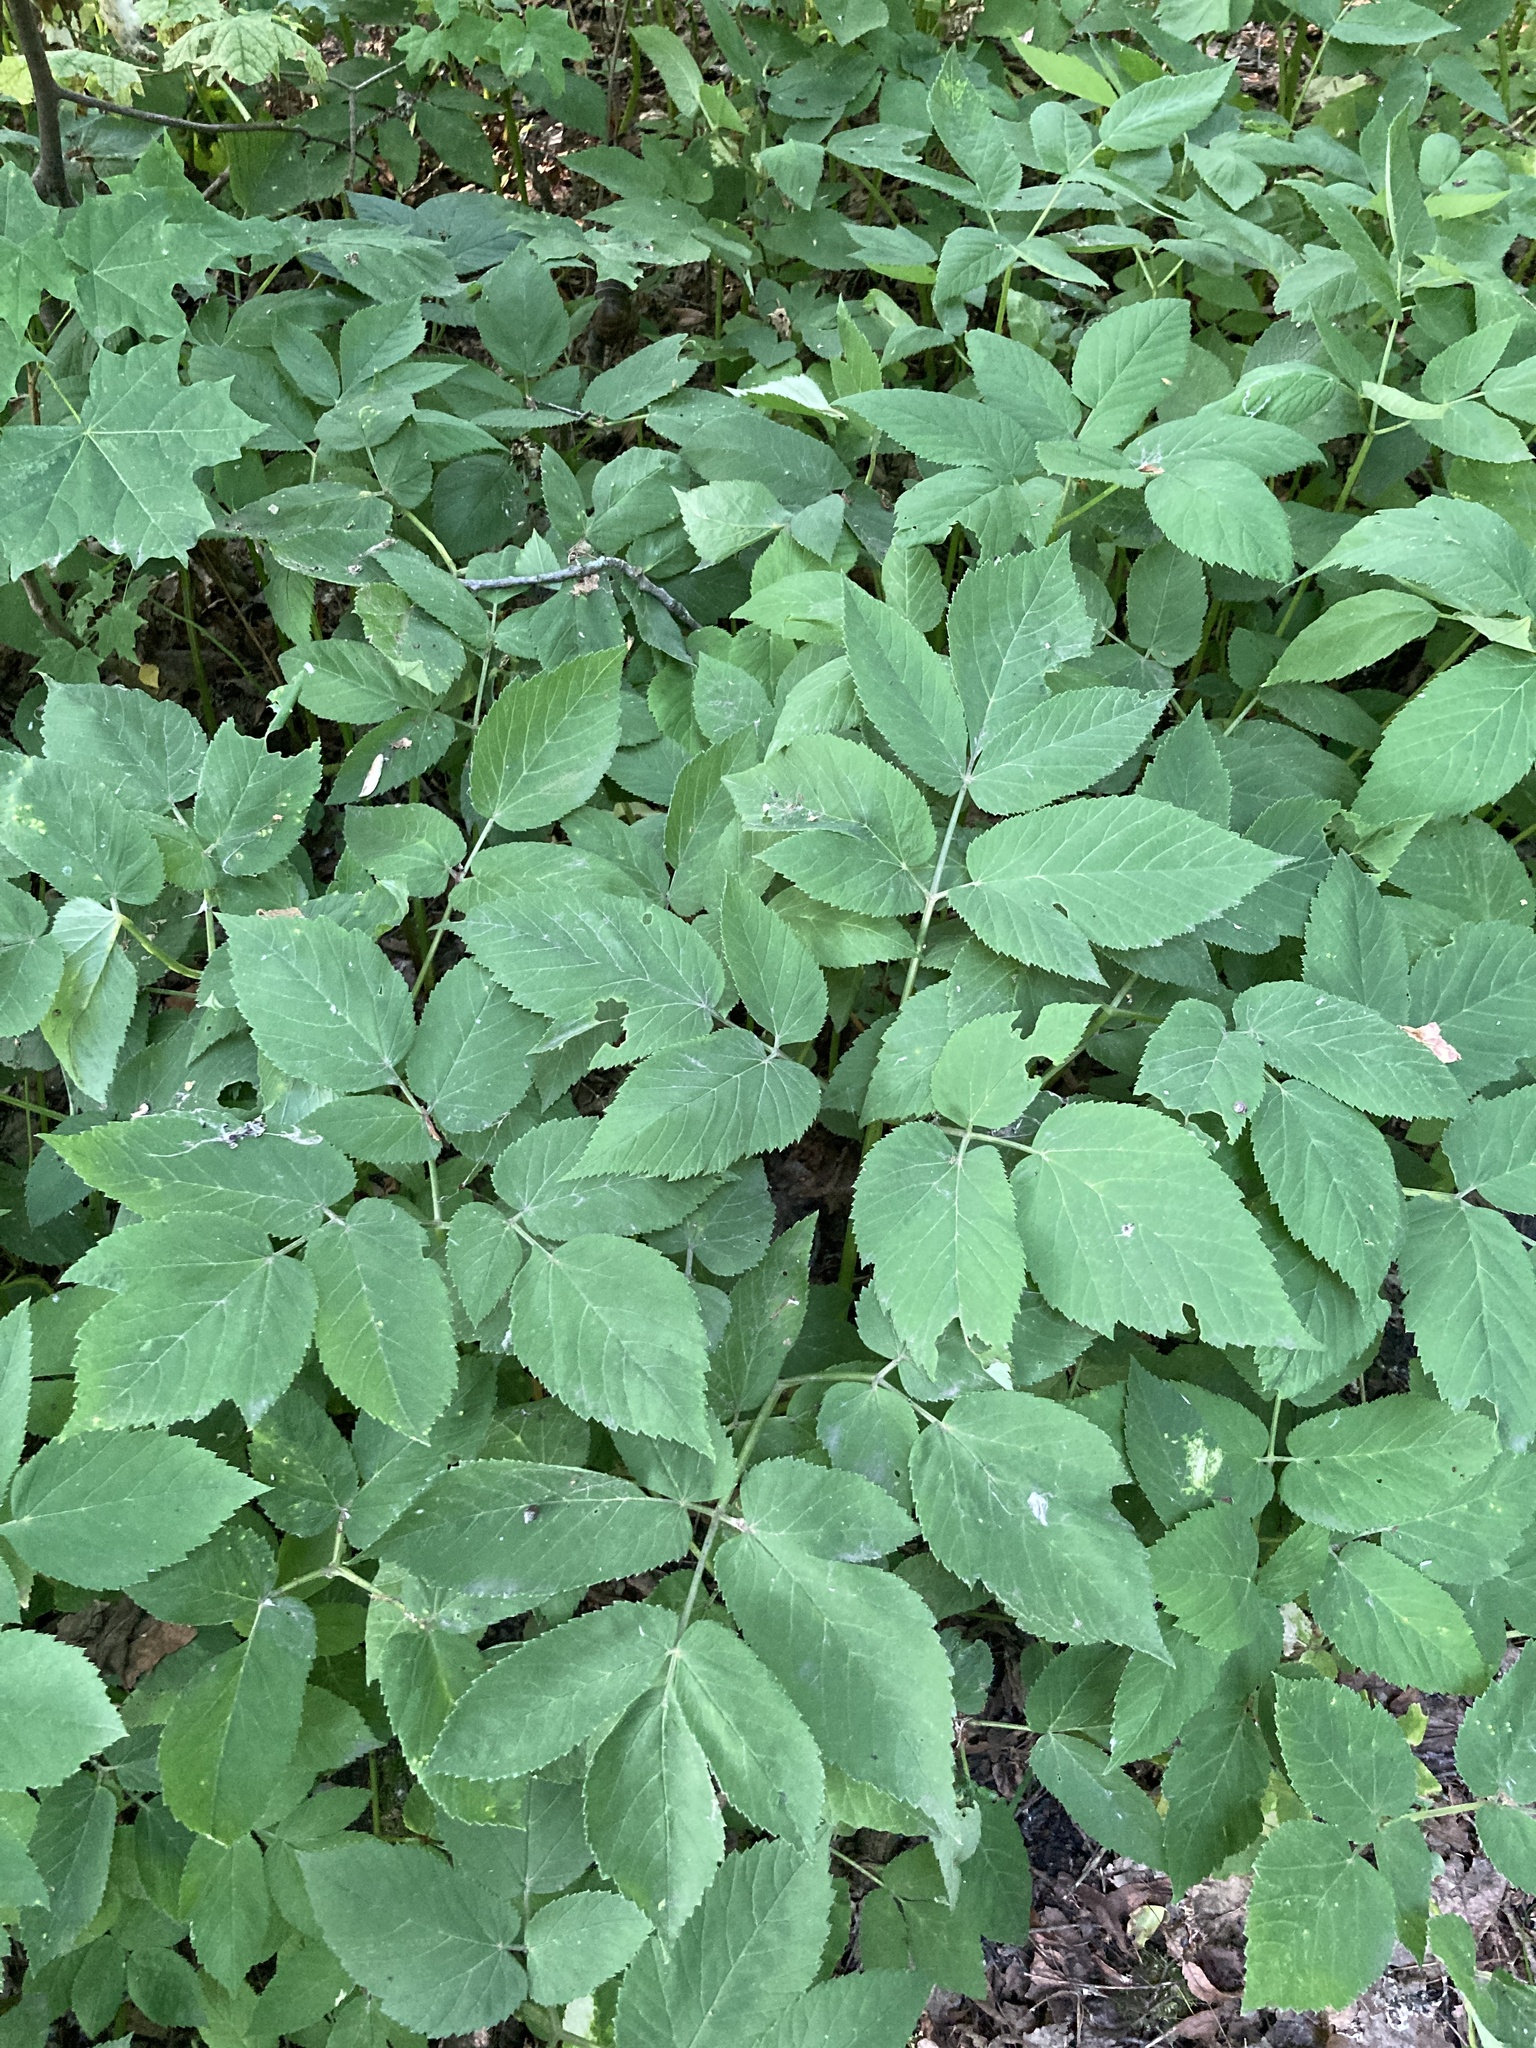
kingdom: Plantae
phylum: Tracheophyta
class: Magnoliopsida
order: Apiales
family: Apiaceae
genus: Aegopodium
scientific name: Aegopodium podagraria
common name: Ground-elder
